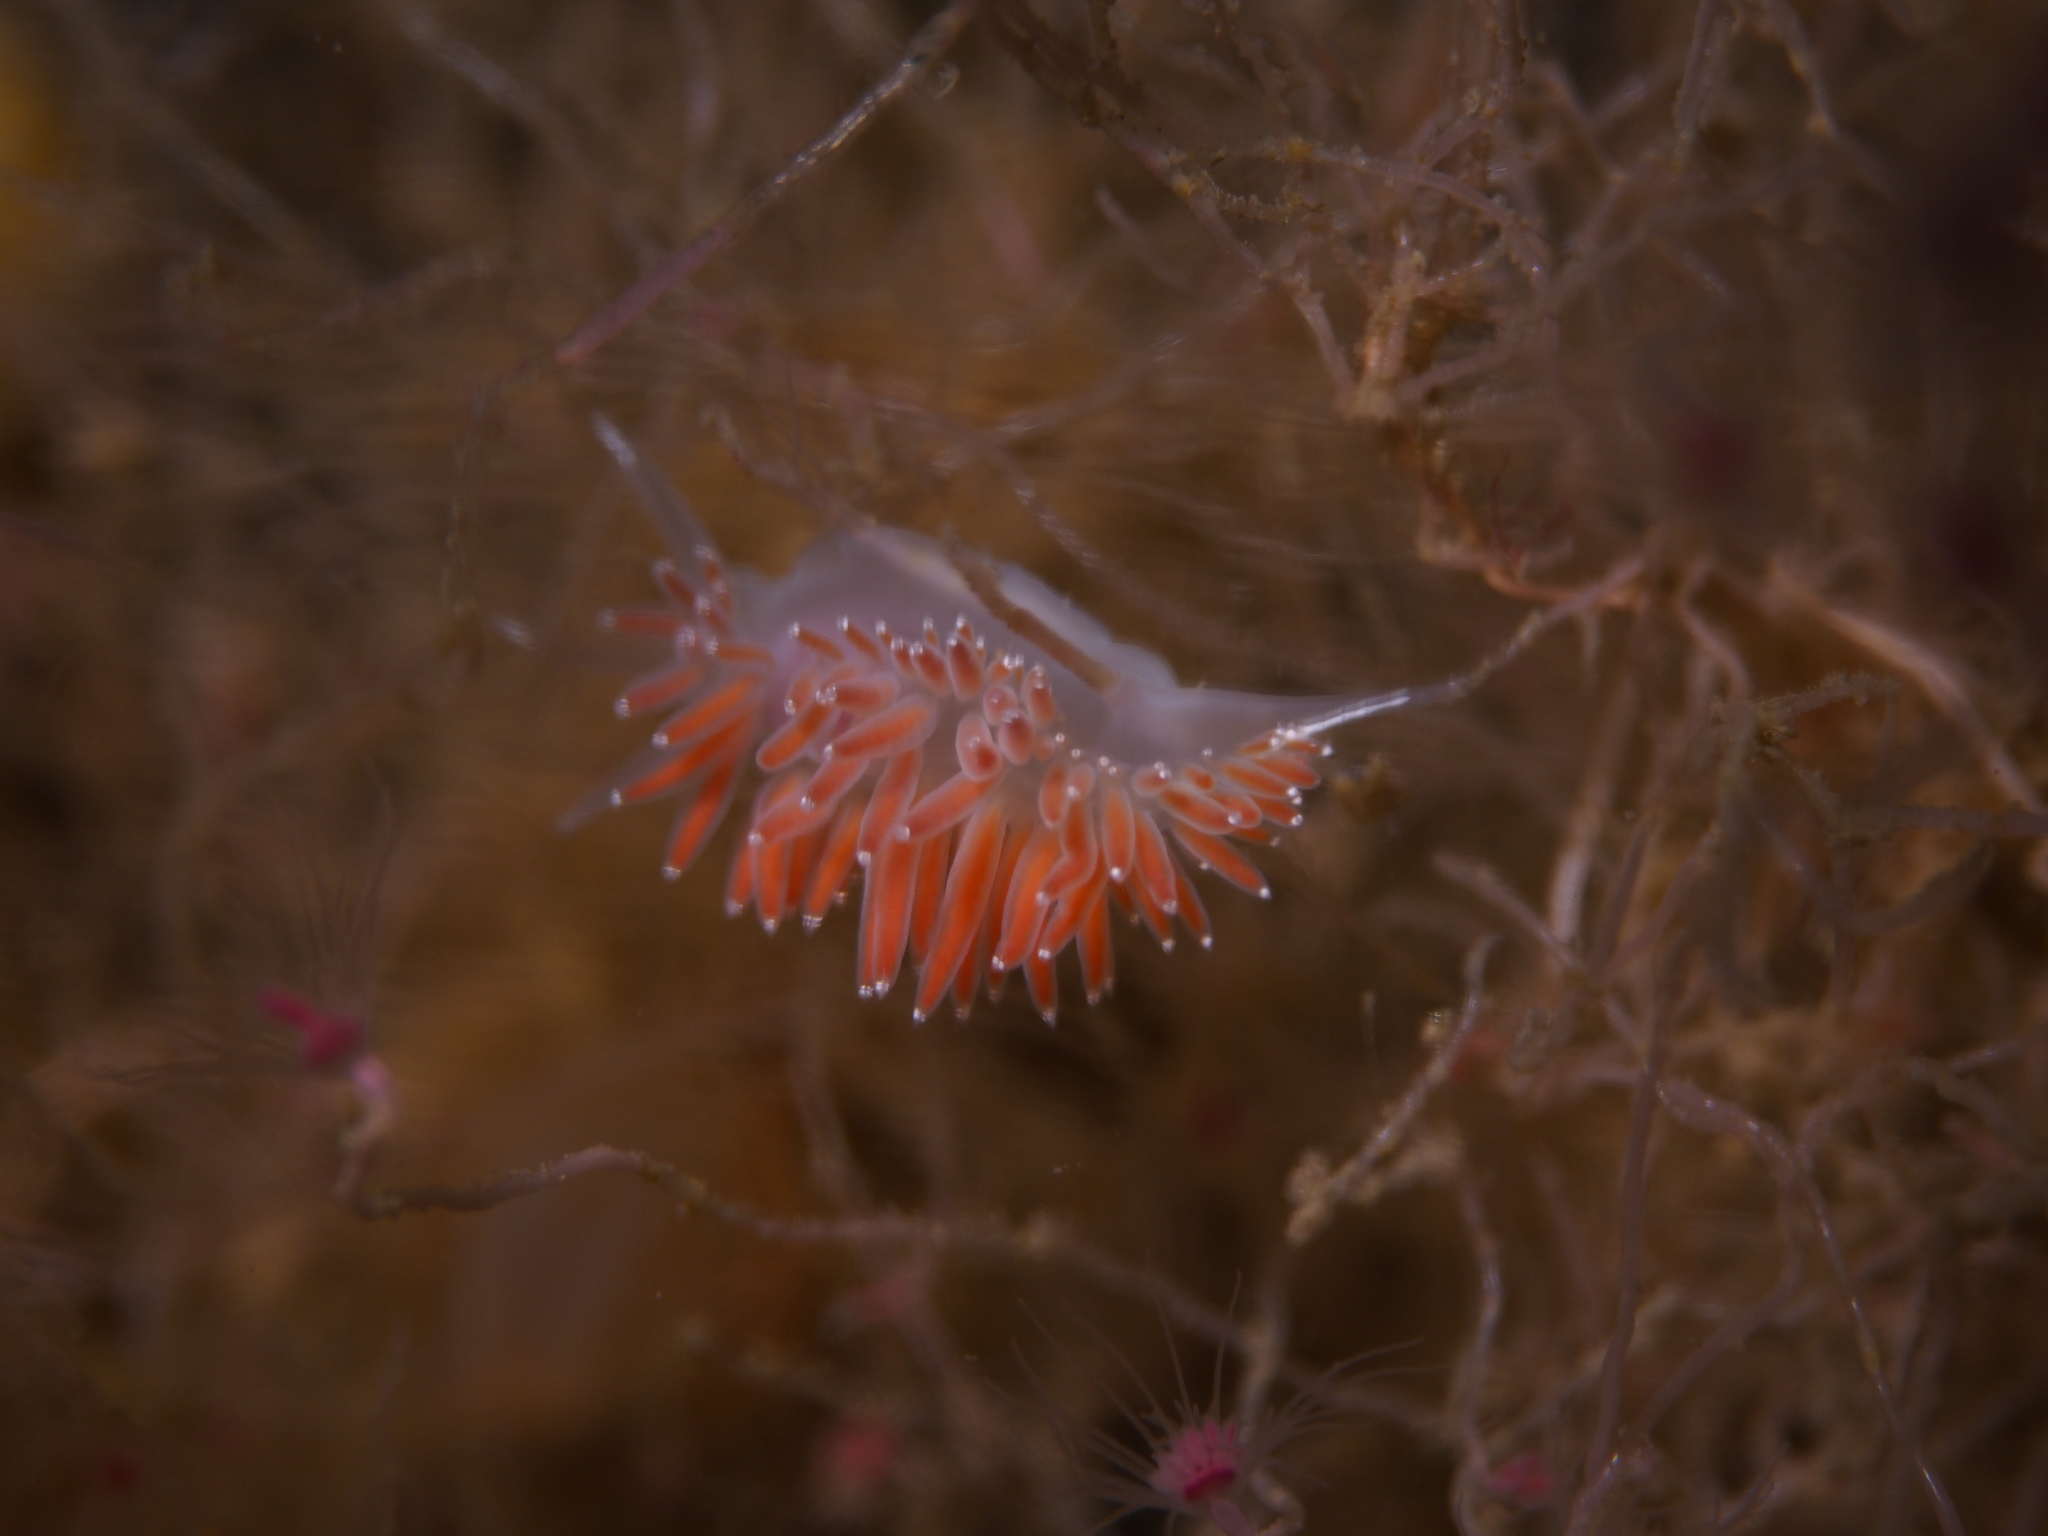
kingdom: Animalia
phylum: Mollusca
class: Gastropoda
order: Nudibranchia
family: Coryphellidae
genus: Coryphella
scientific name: Coryphella verrucosa
